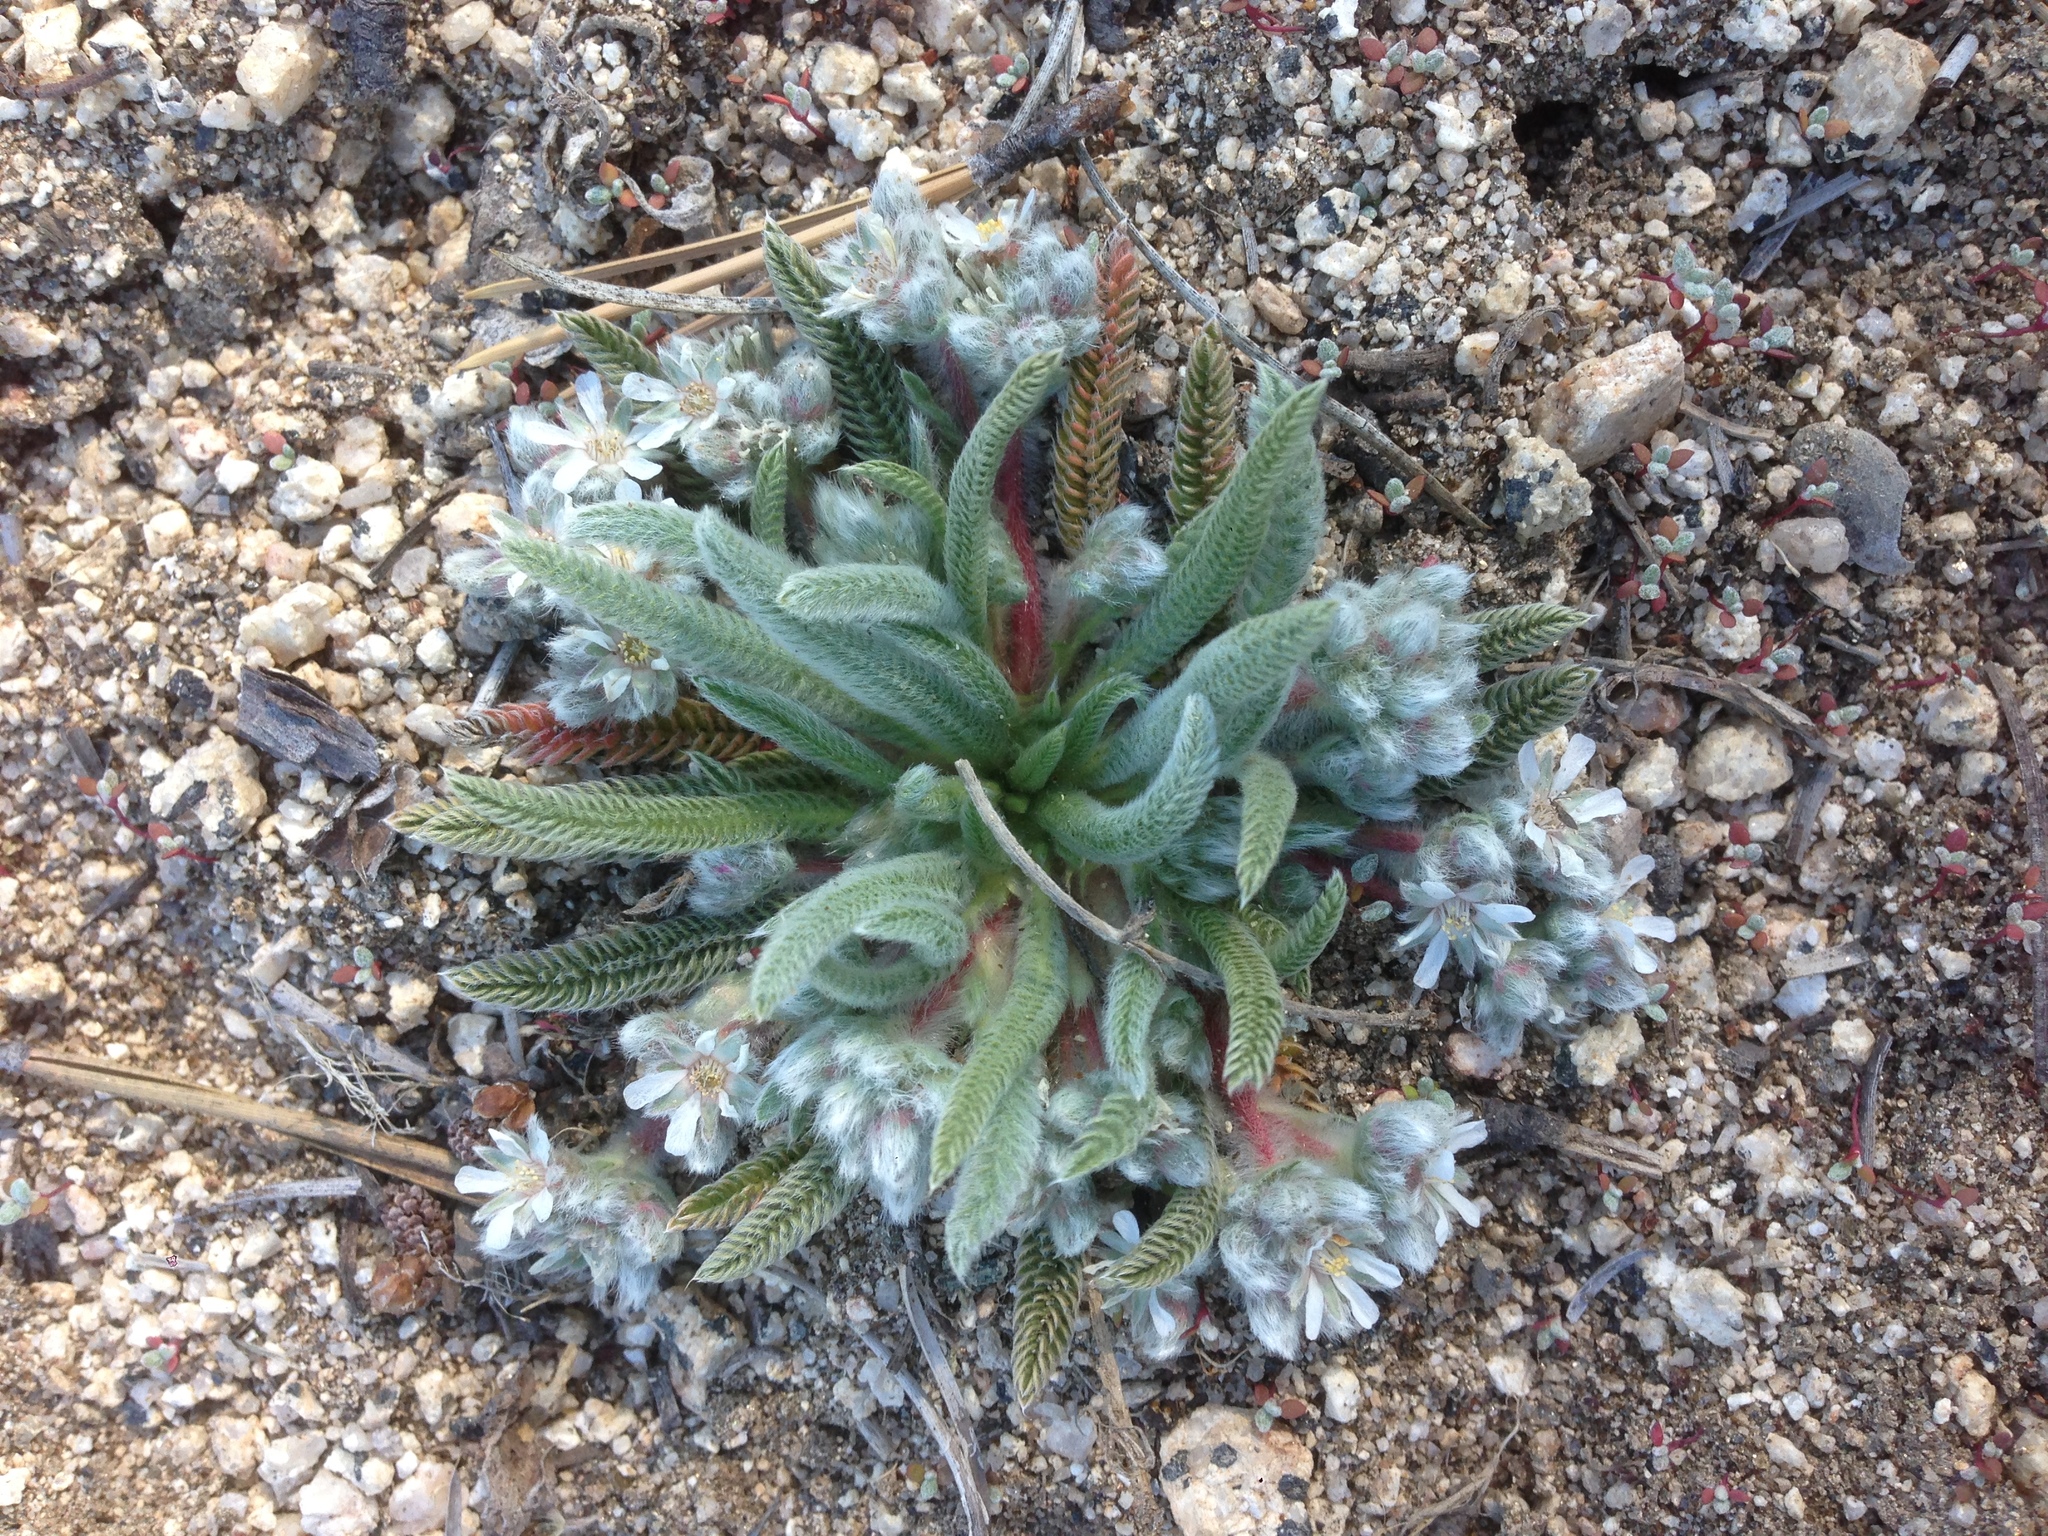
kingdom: Plantae
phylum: Tracheophyta
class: Magnoliopsida
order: Rosales
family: Rosaceae
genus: Potentilla
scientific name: Potentilla argyrocoma
